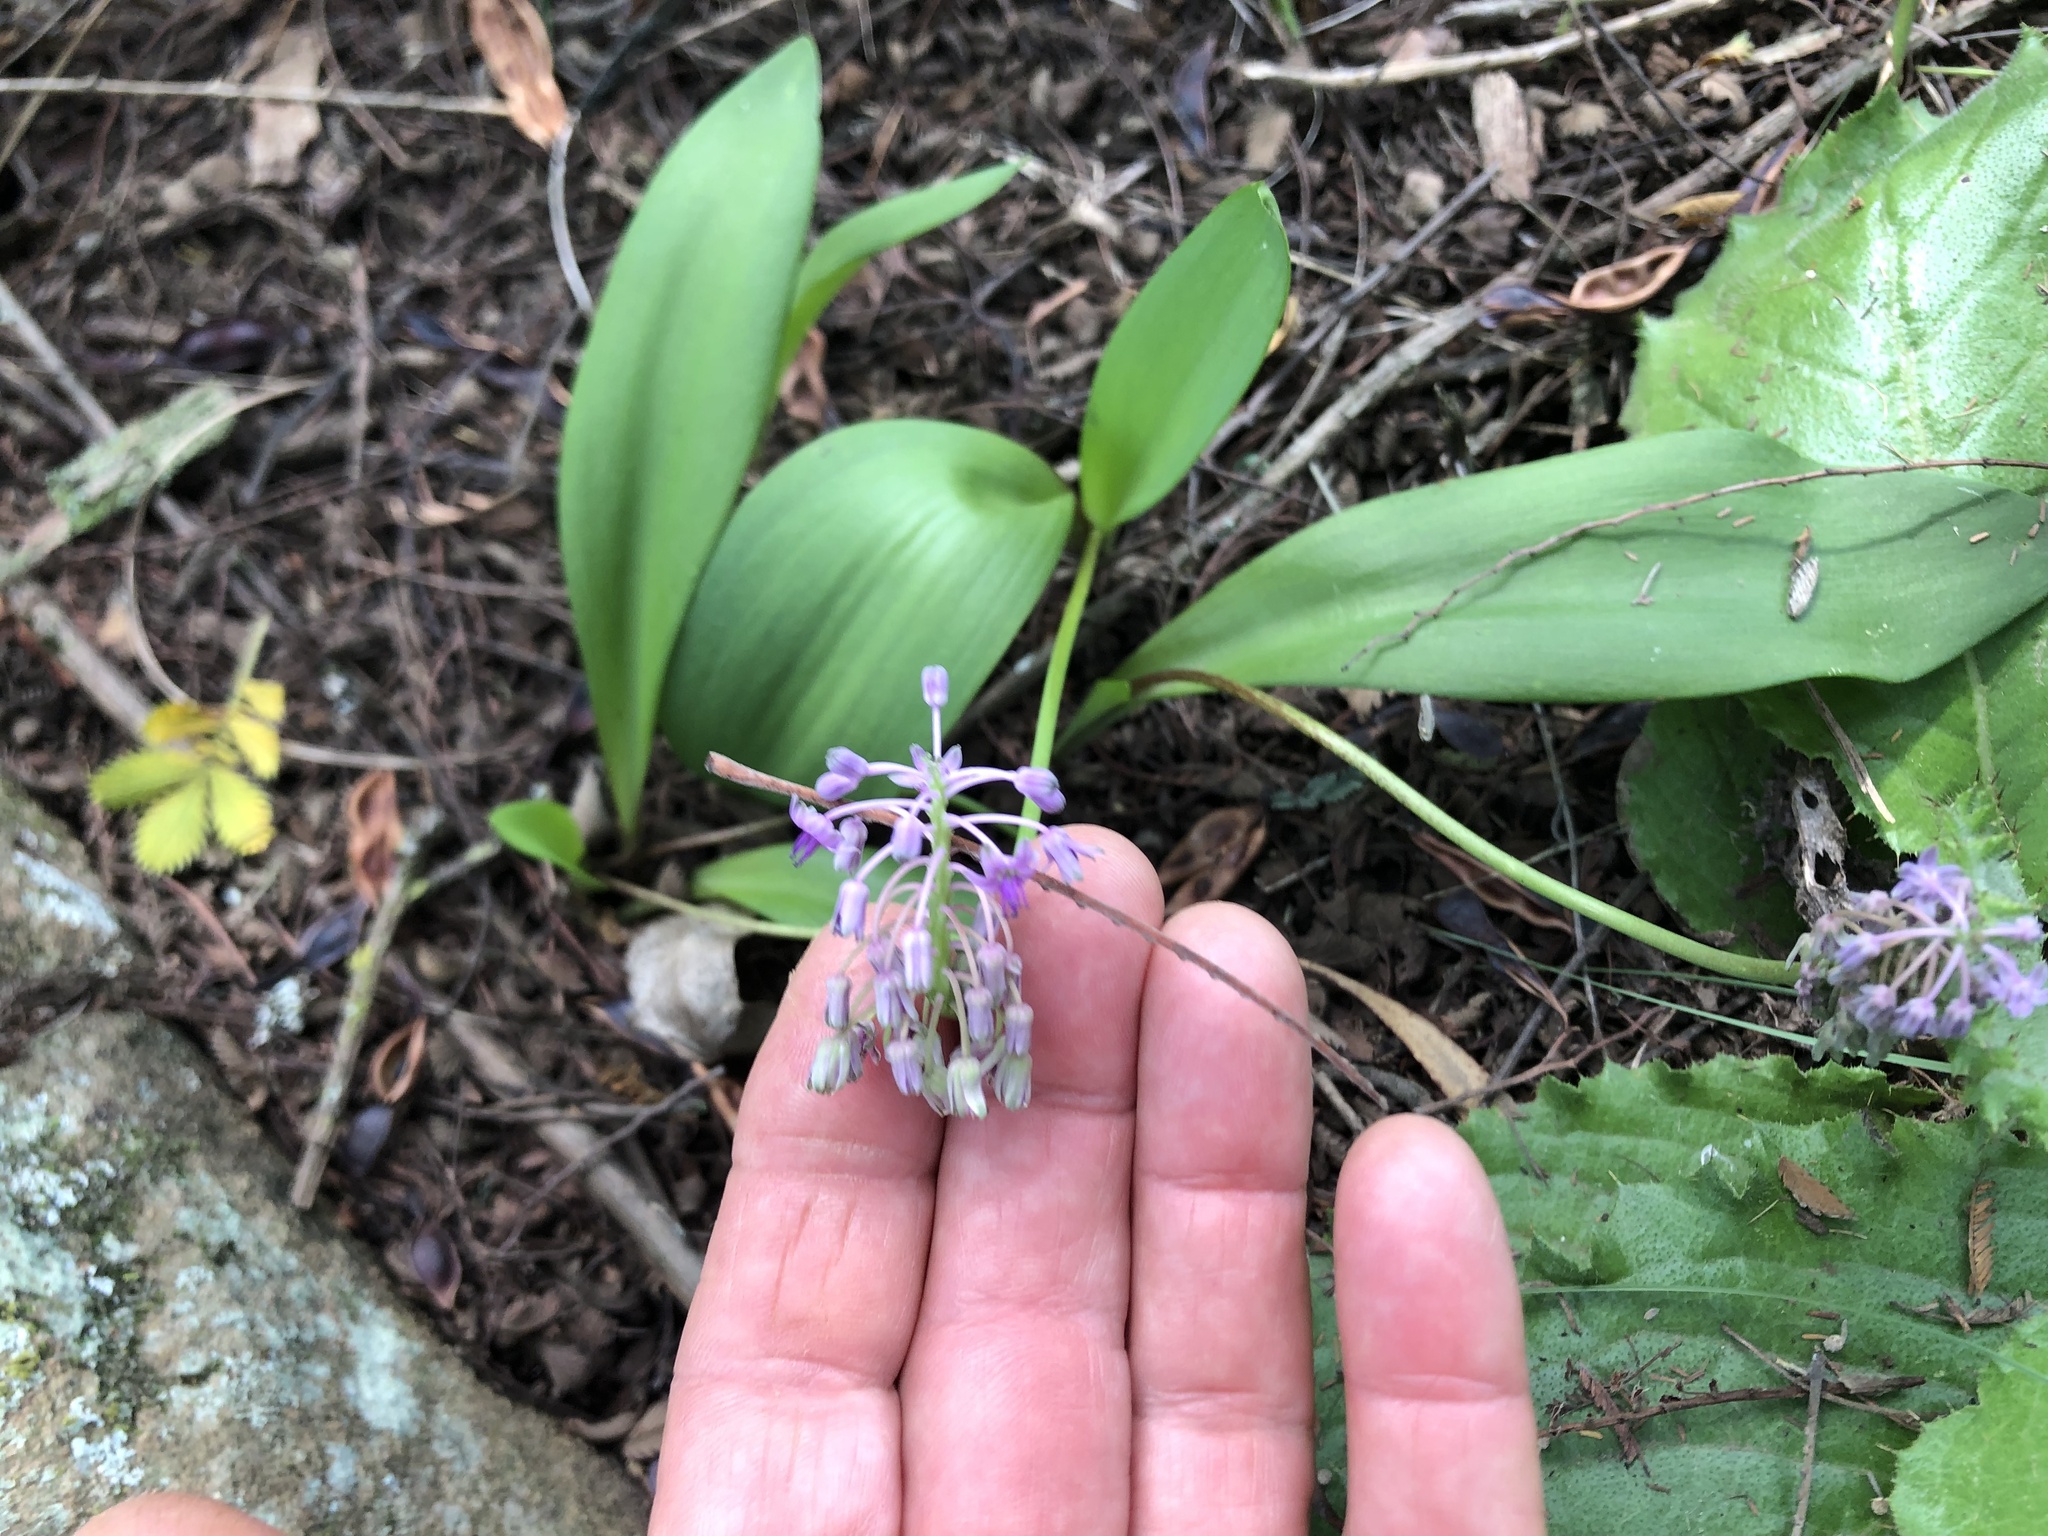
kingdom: Plantae
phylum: Tracheophyta
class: Liliopsida
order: Asparagales
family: Asparagaceae
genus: Ledebouria
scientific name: Ledebouria sandersonii
